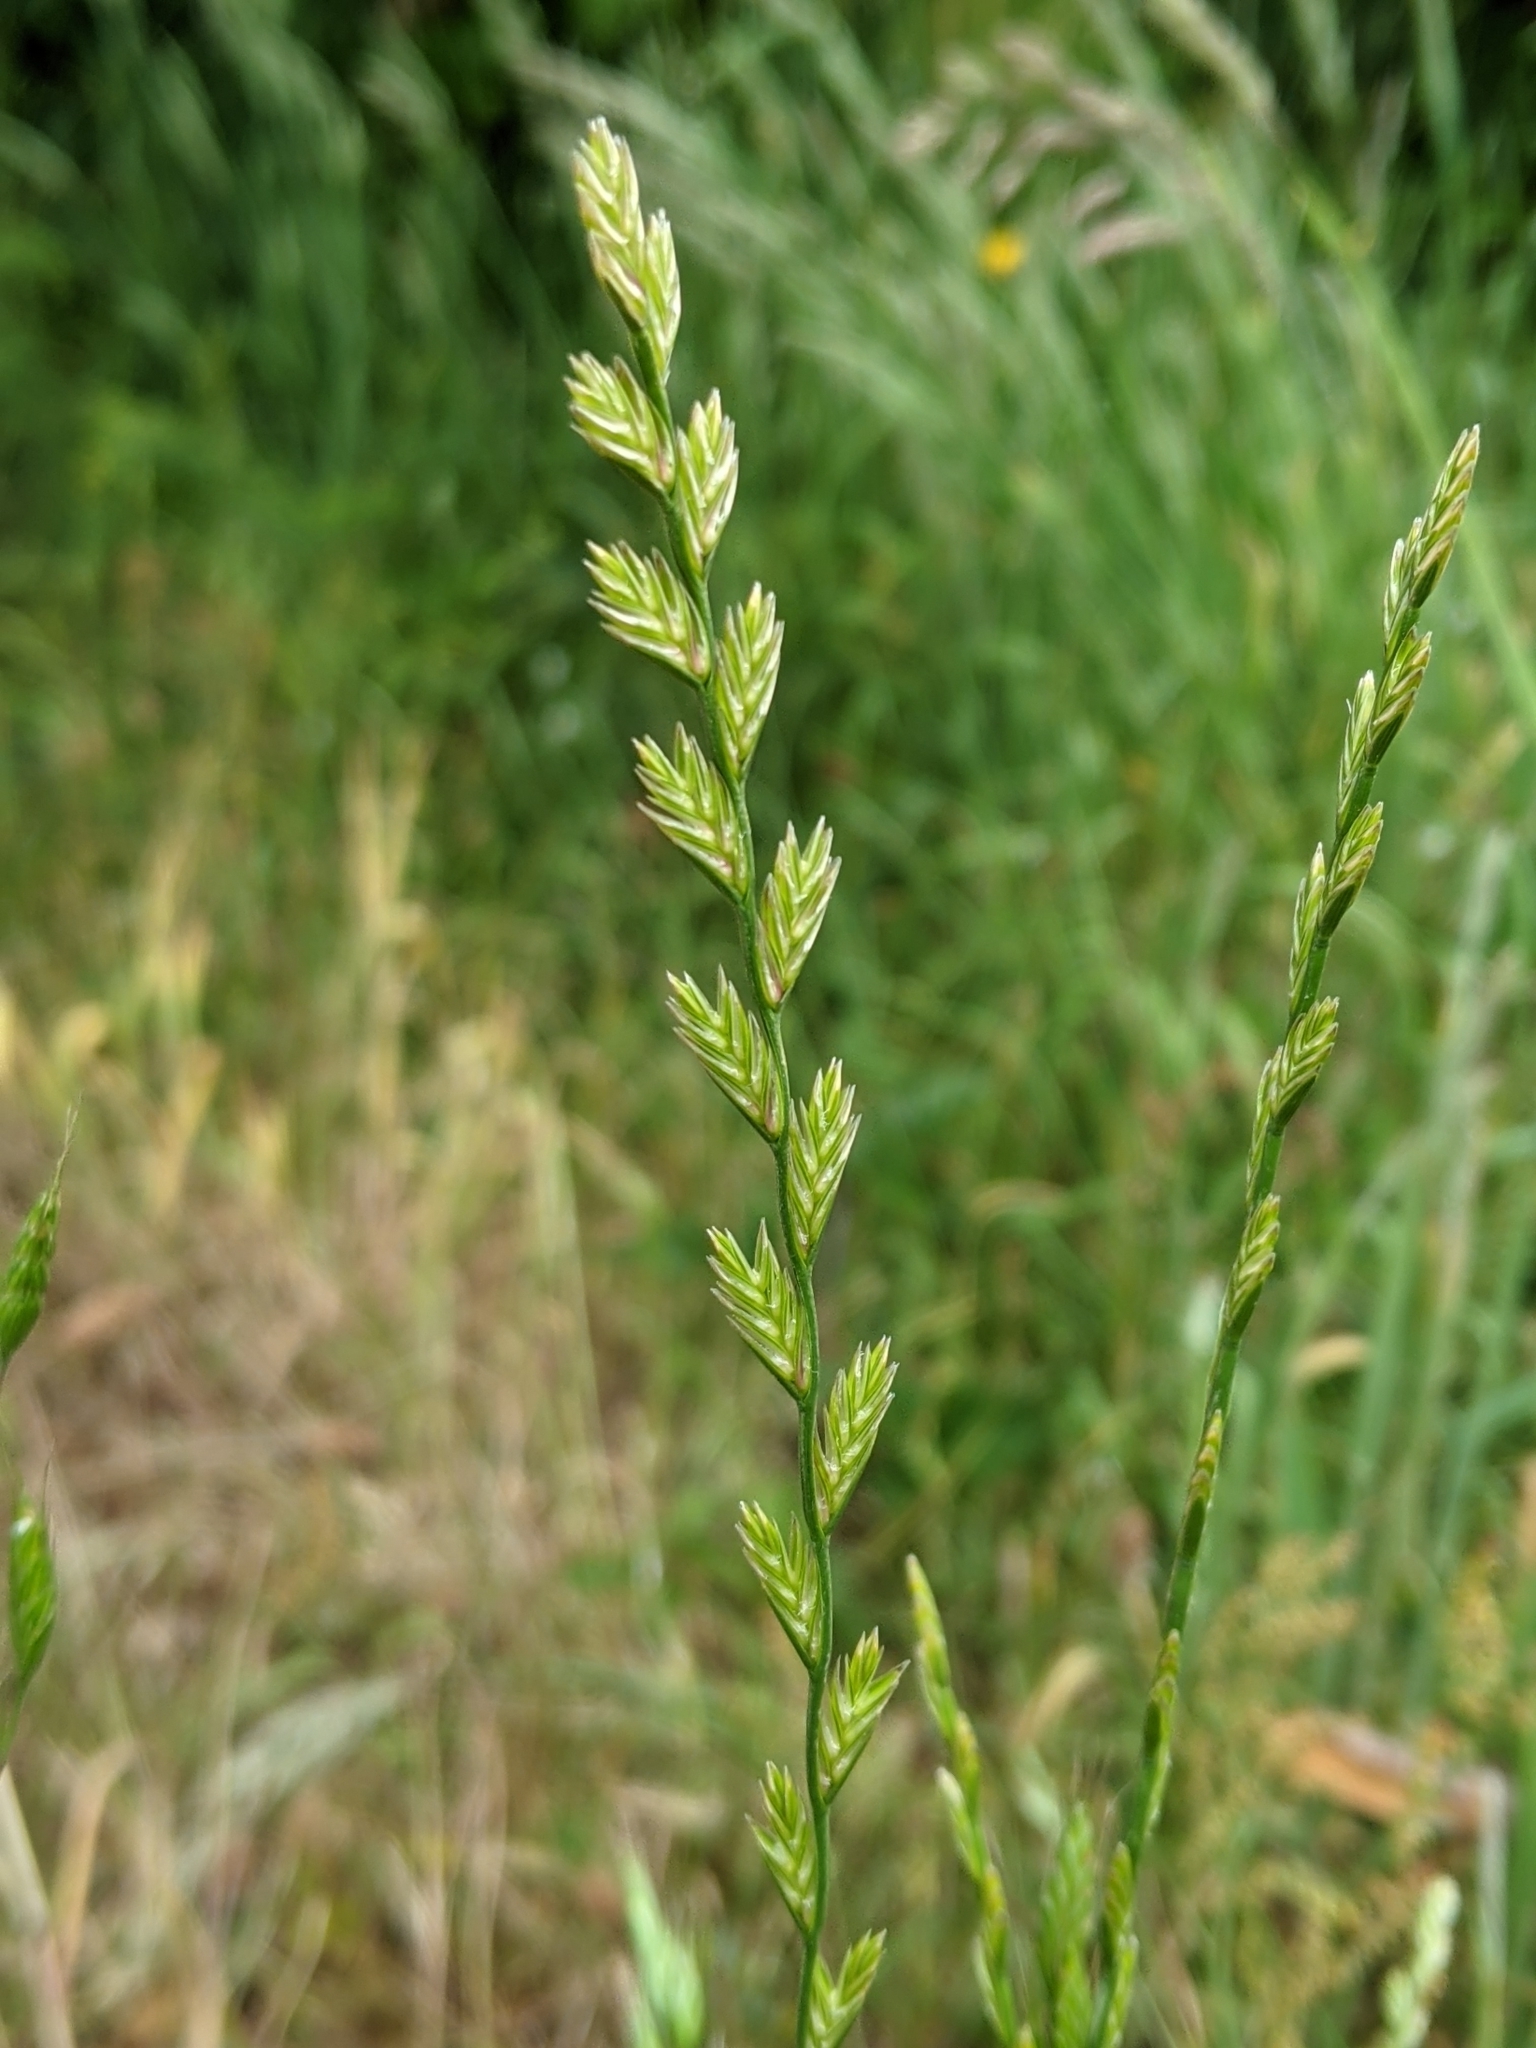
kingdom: Plantae
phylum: Tracheophyta
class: Liliopsida
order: Poales
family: Poaceae
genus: Lolium
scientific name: Lolium perenne
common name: Perennial ryegrass
